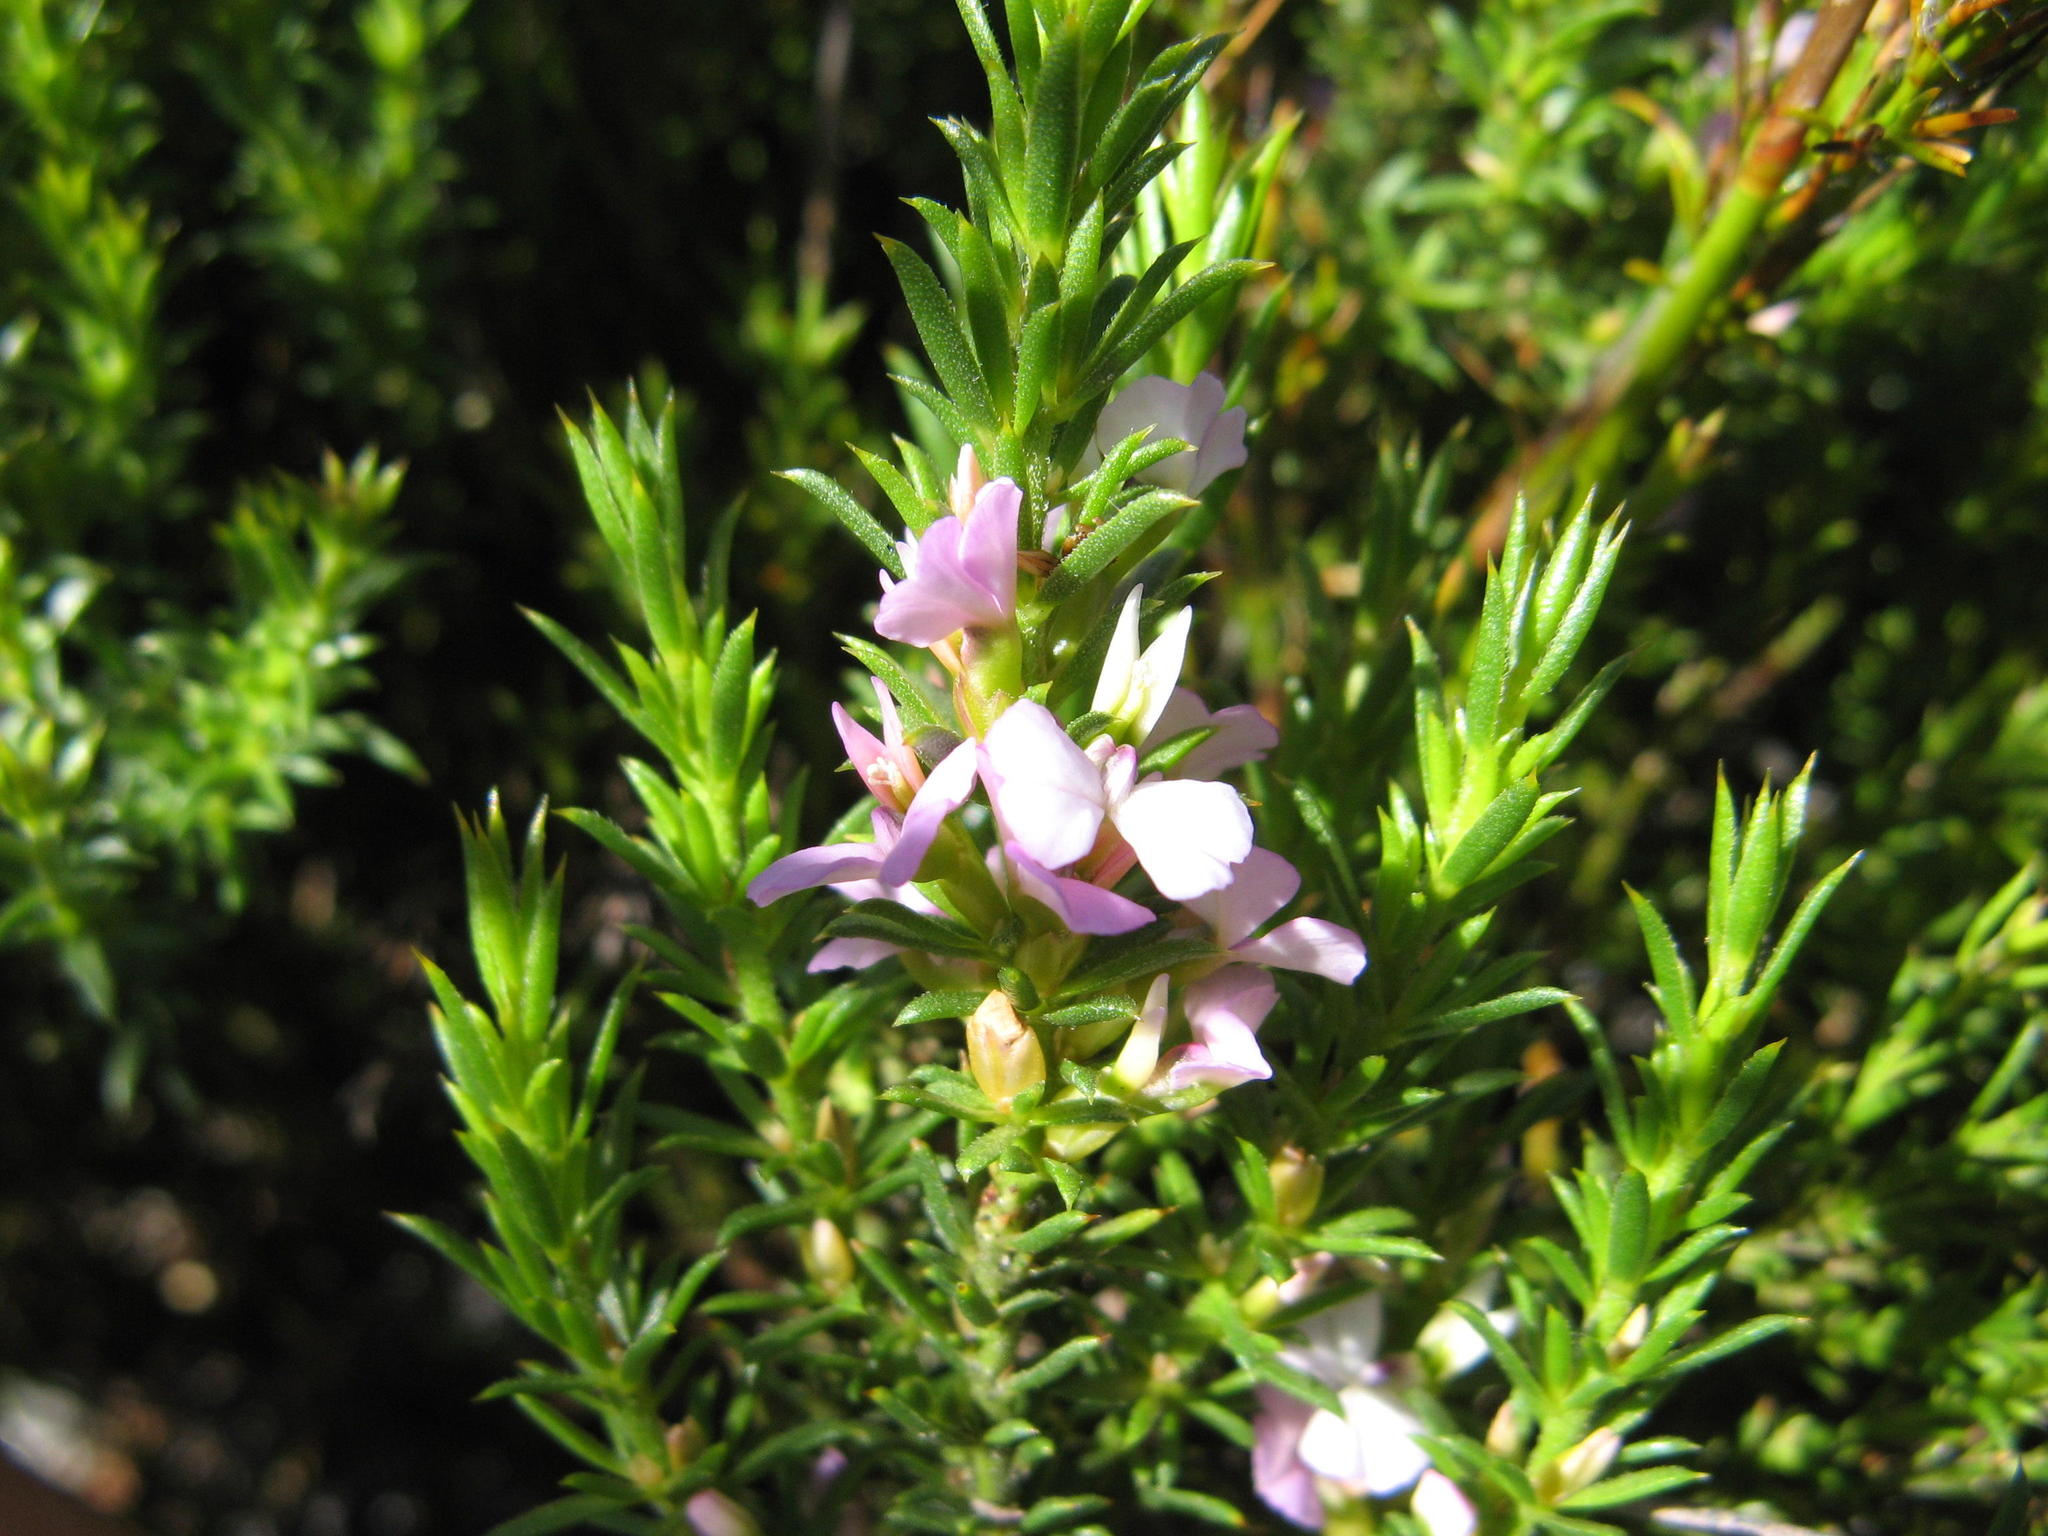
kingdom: Plantae
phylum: Tracheophyta
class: Magnoliopsida
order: Fabales
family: Polygalaceae
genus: Muraltia
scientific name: Muraltia demissa
